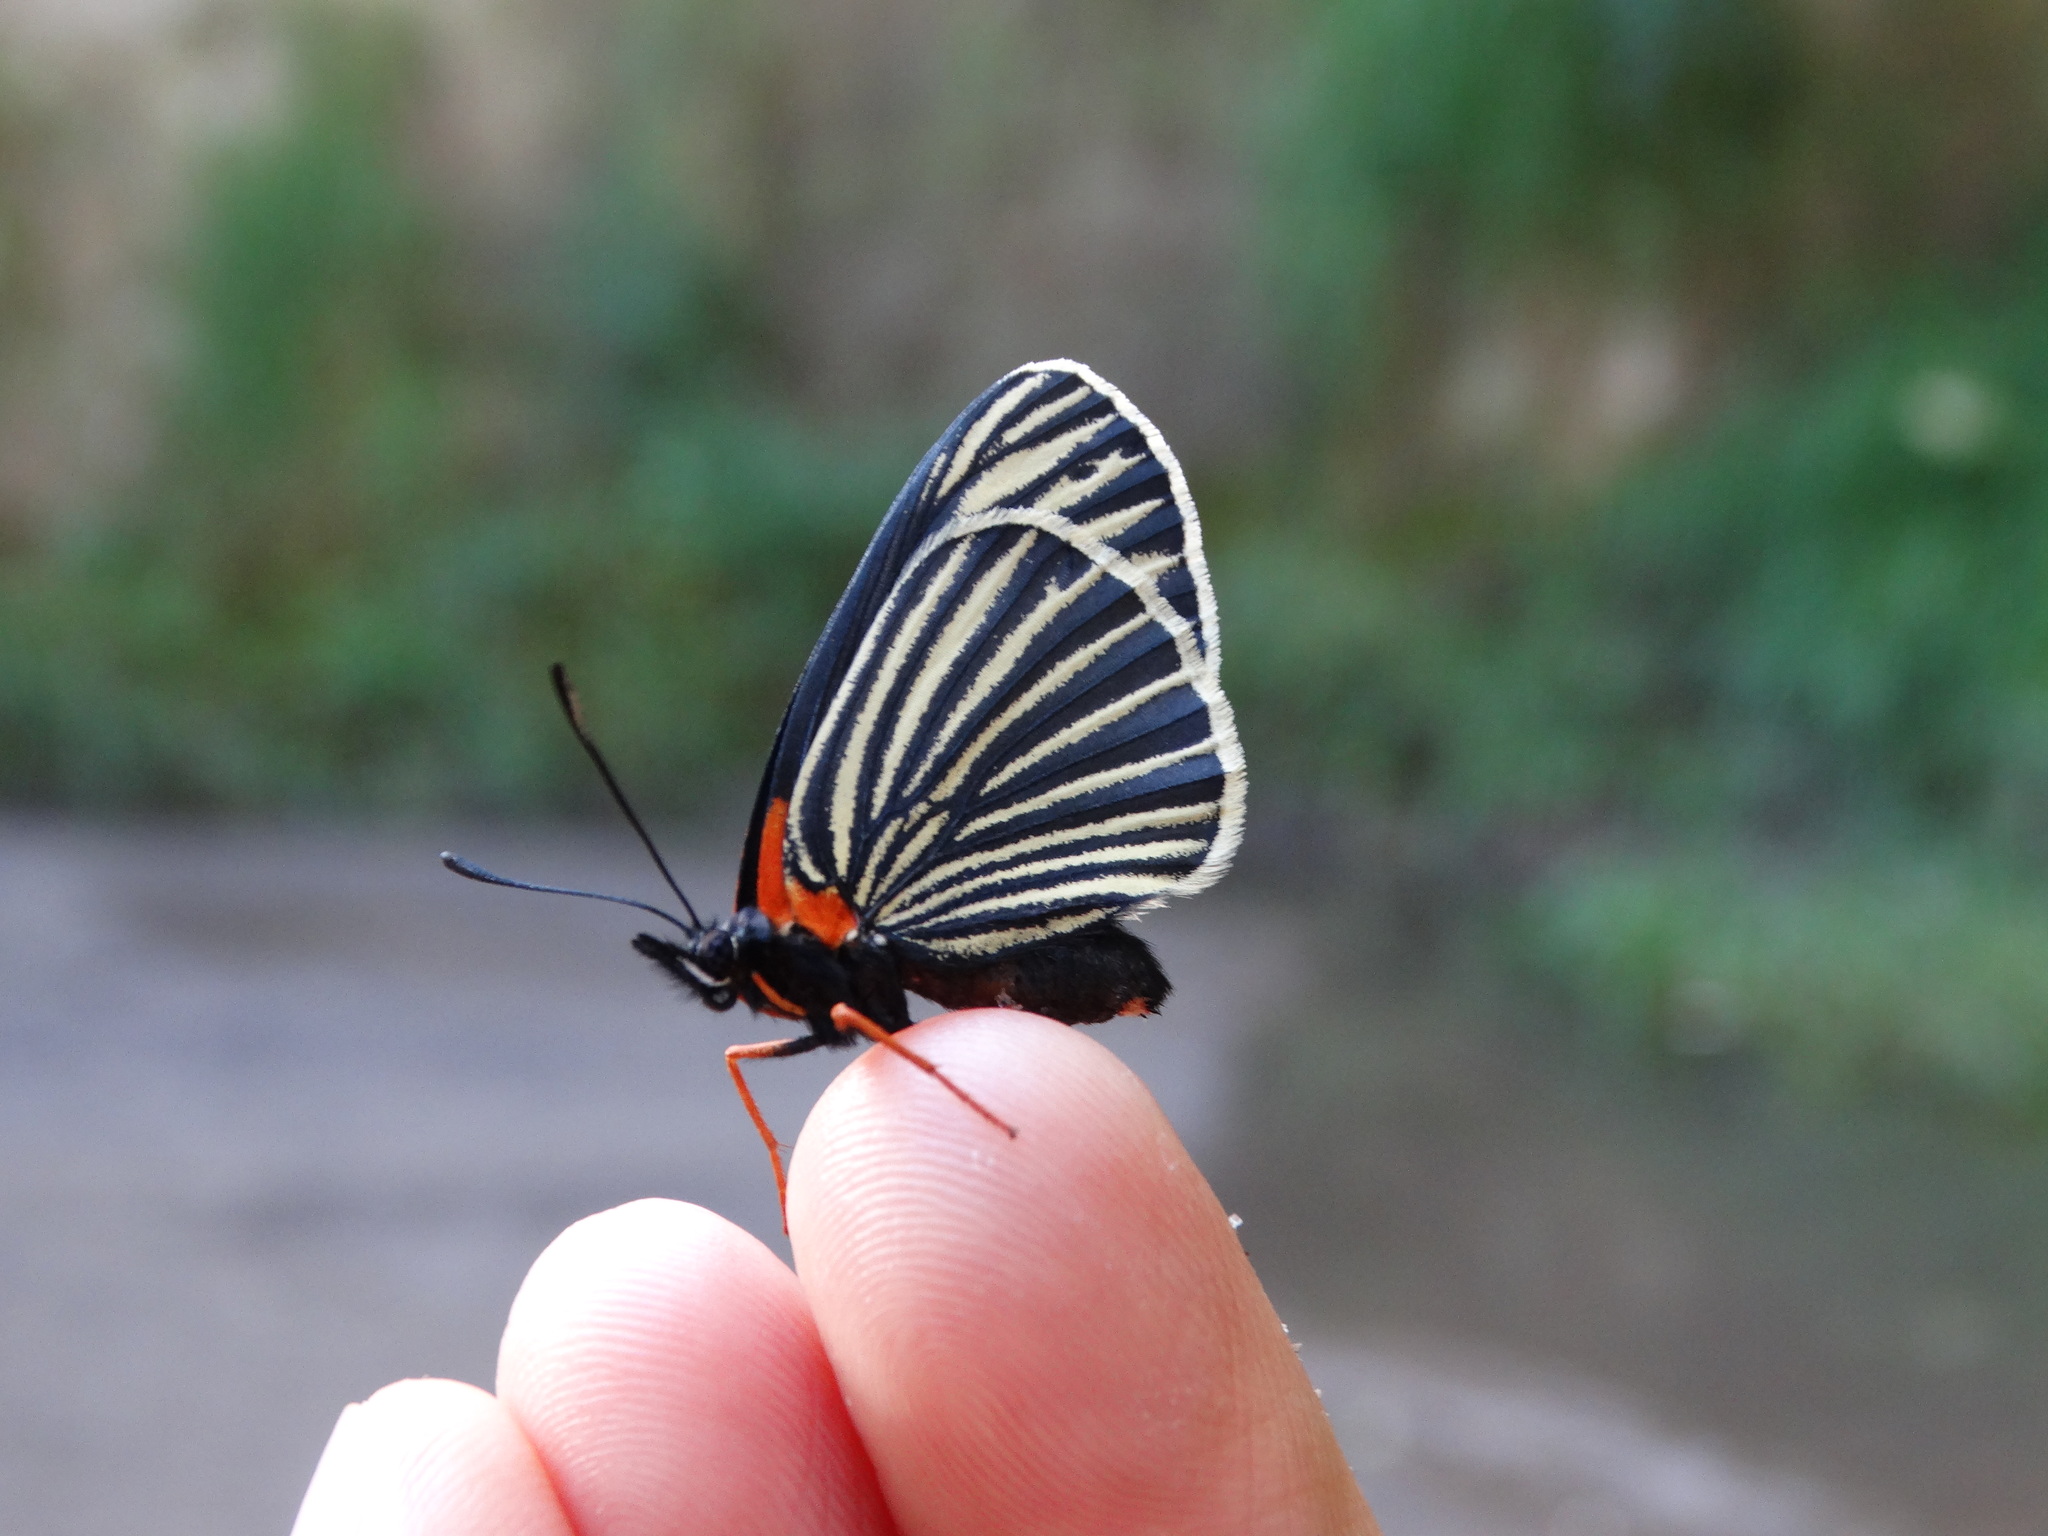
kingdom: Animalia
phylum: Arthropoda
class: Insecta
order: Lepidoptera
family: Nymphalidae
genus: Chlosyne
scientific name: Chlosyne ehrenbergii
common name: White-rayed patch
